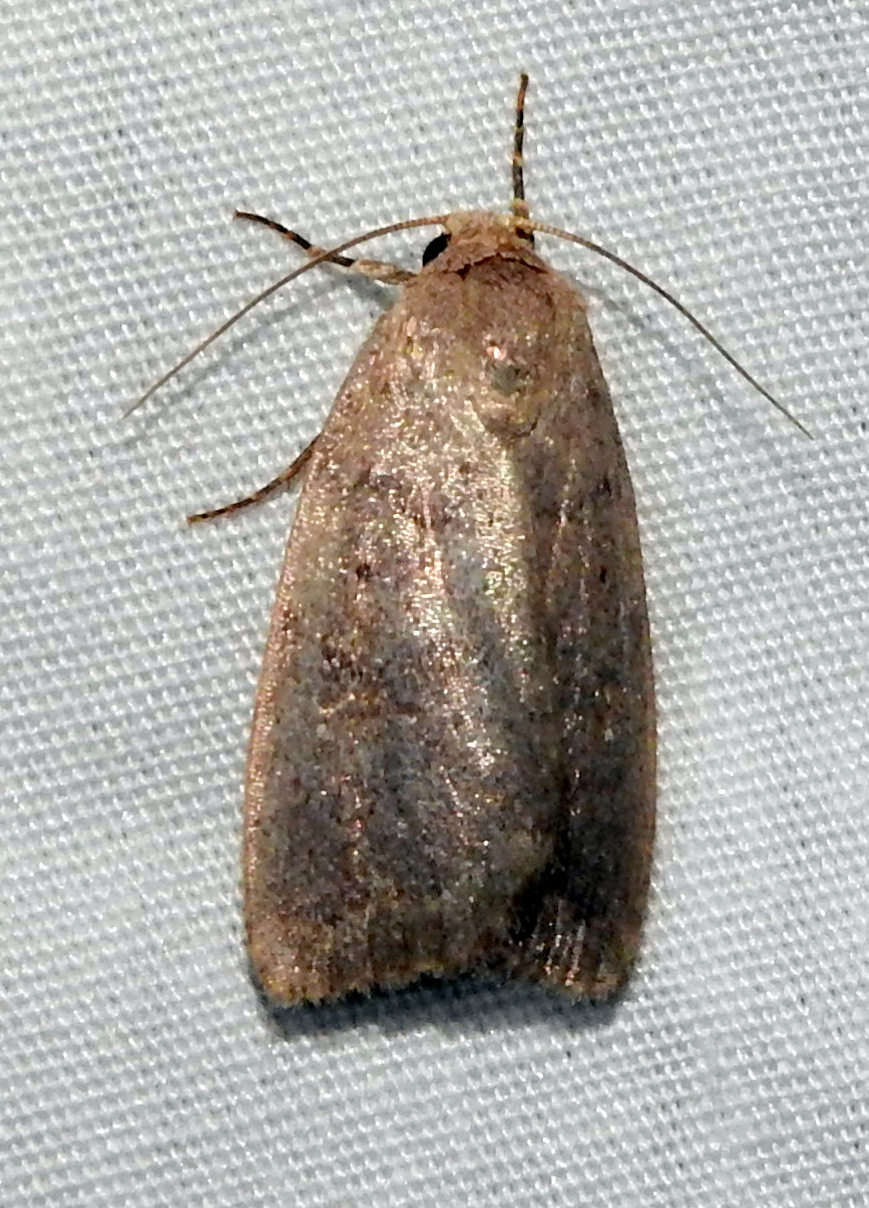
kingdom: Animalia
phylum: Arthropoda
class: Insecta
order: Lepidoptera
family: Noctuidae
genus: Athetis
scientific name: Athetis tarda
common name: Slowpoke moth
